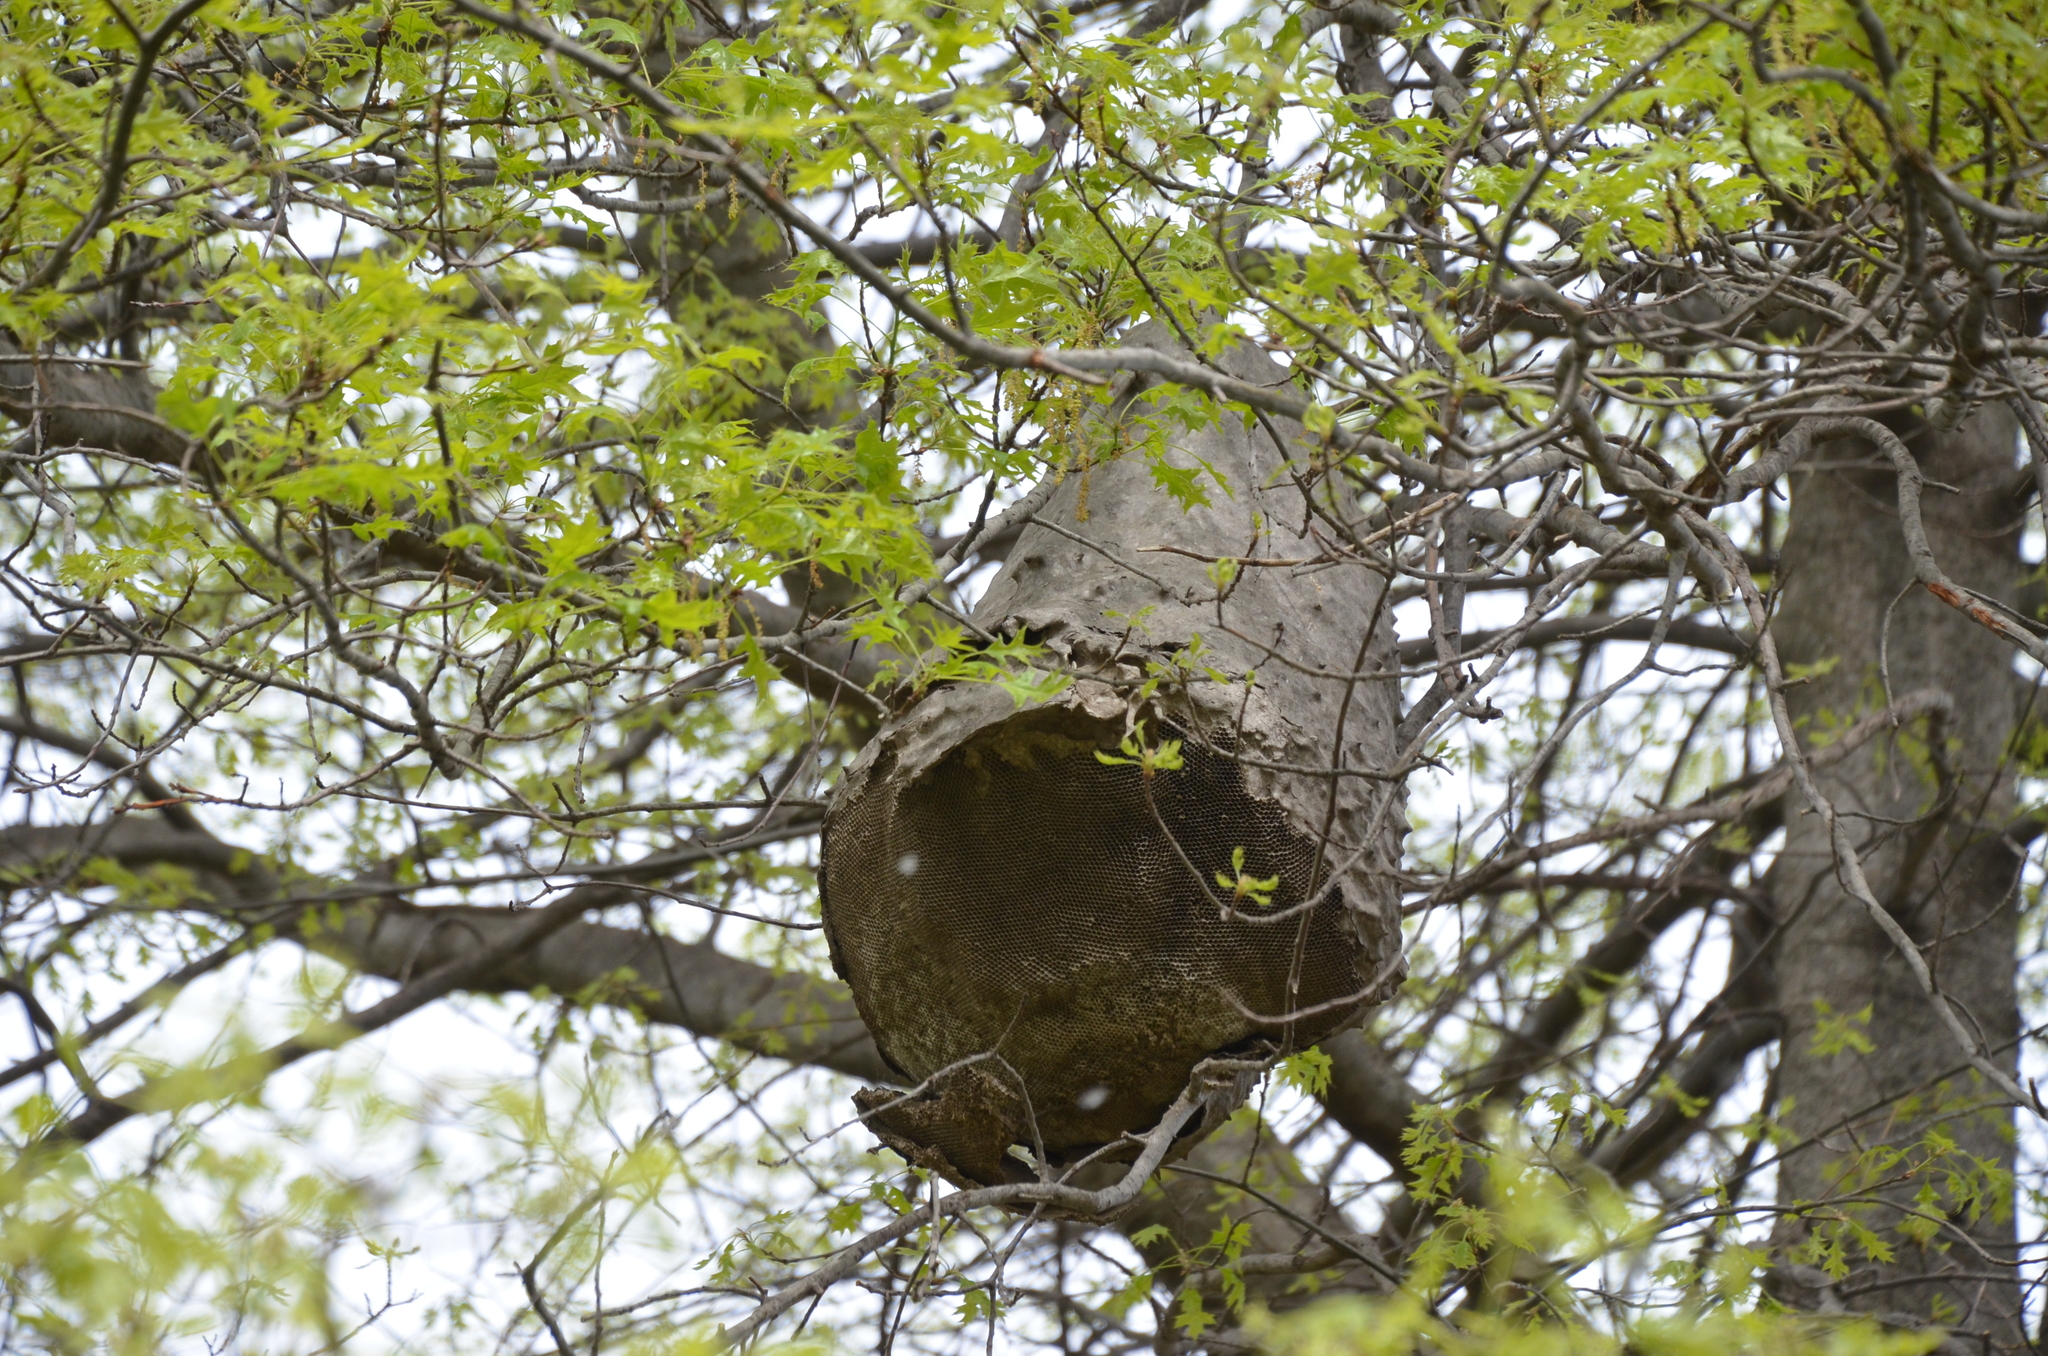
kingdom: Animalia
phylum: Arthropoda
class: Insecta
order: Hymenoptera
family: Eumenidae
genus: Polybia
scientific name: Polybia scutellaris
